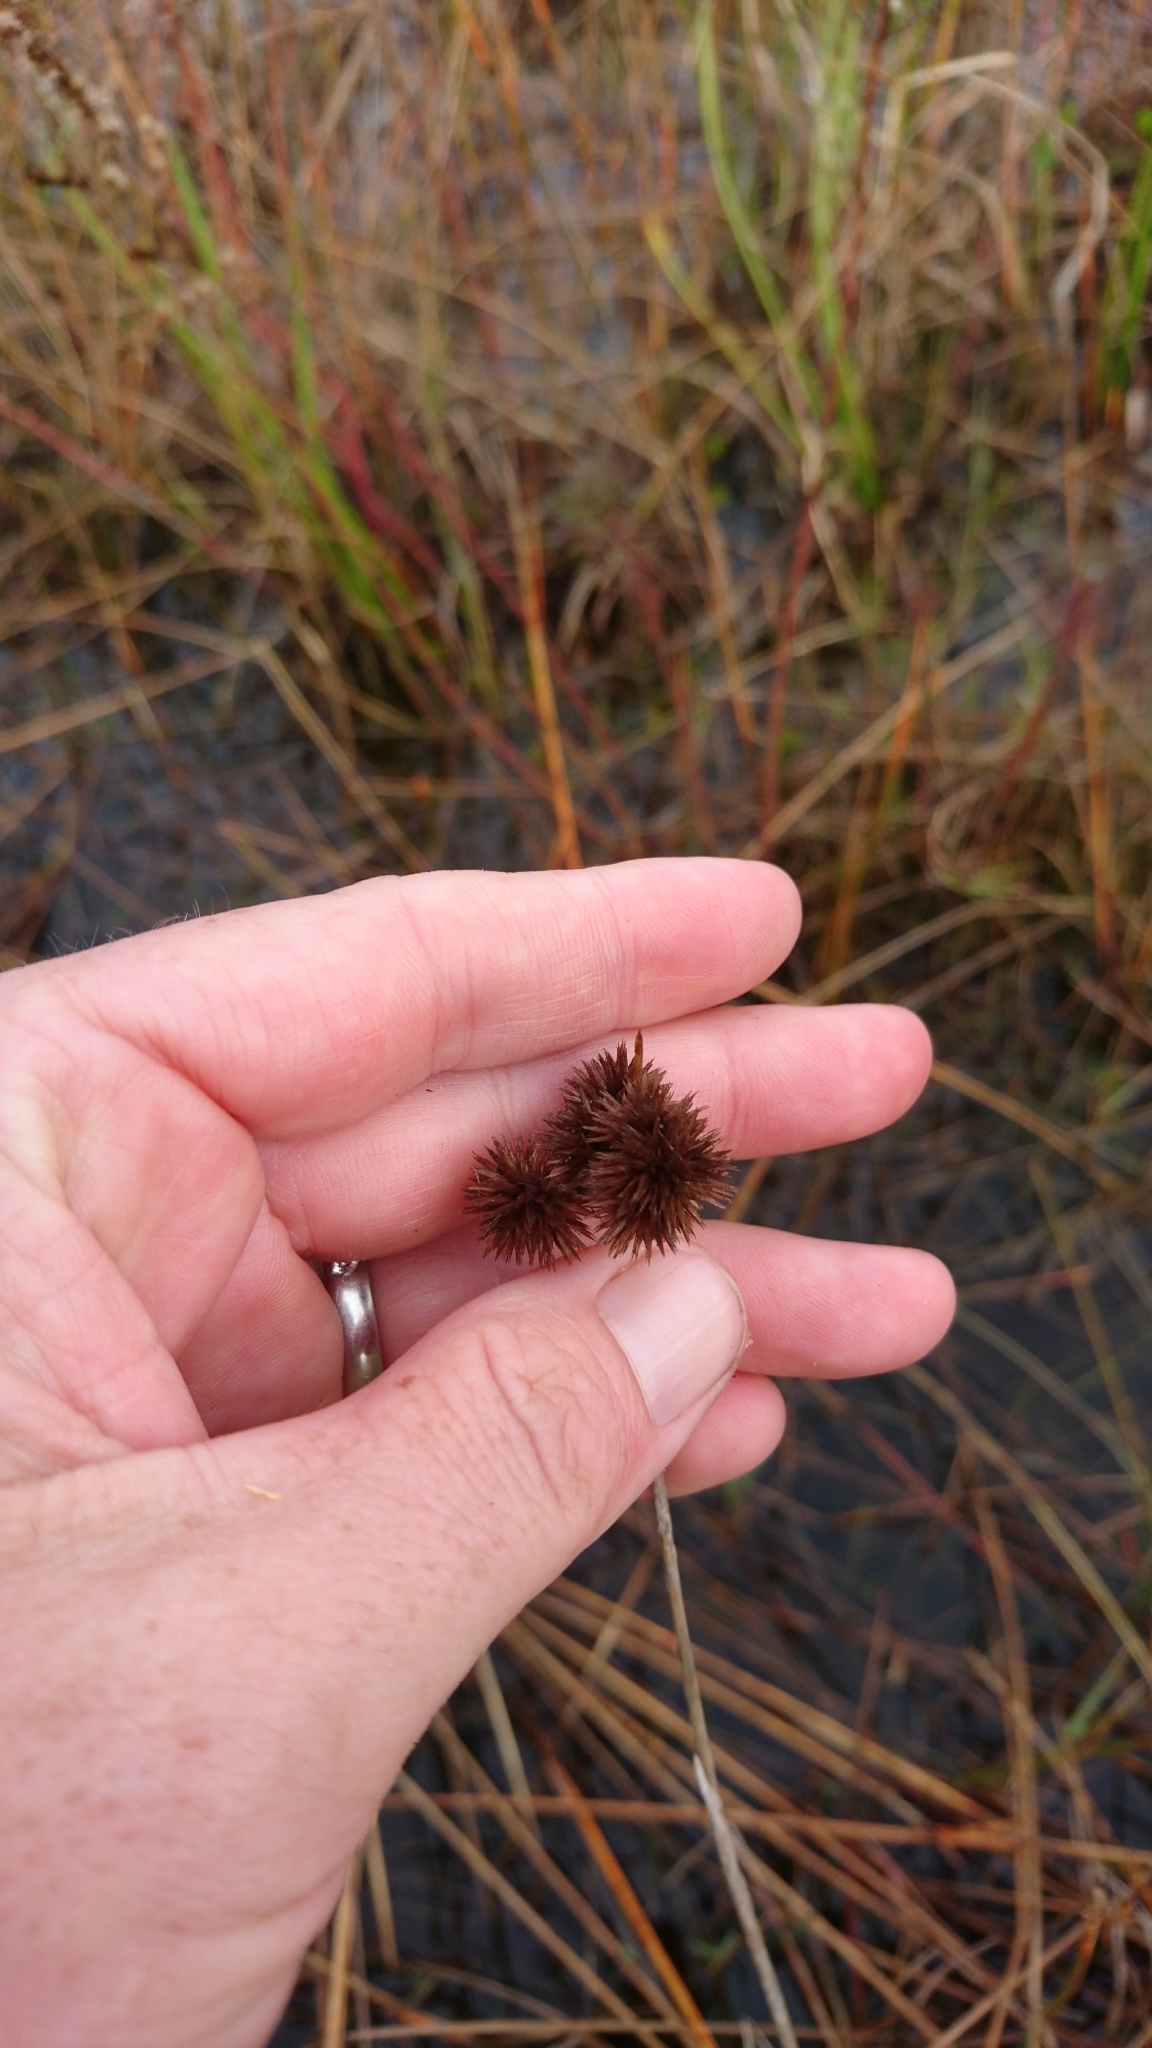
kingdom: Plantae
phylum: Tracheophyta
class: Liliopsida
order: Poales
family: Juncaceae
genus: Juncus
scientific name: Juncus megacephalus
